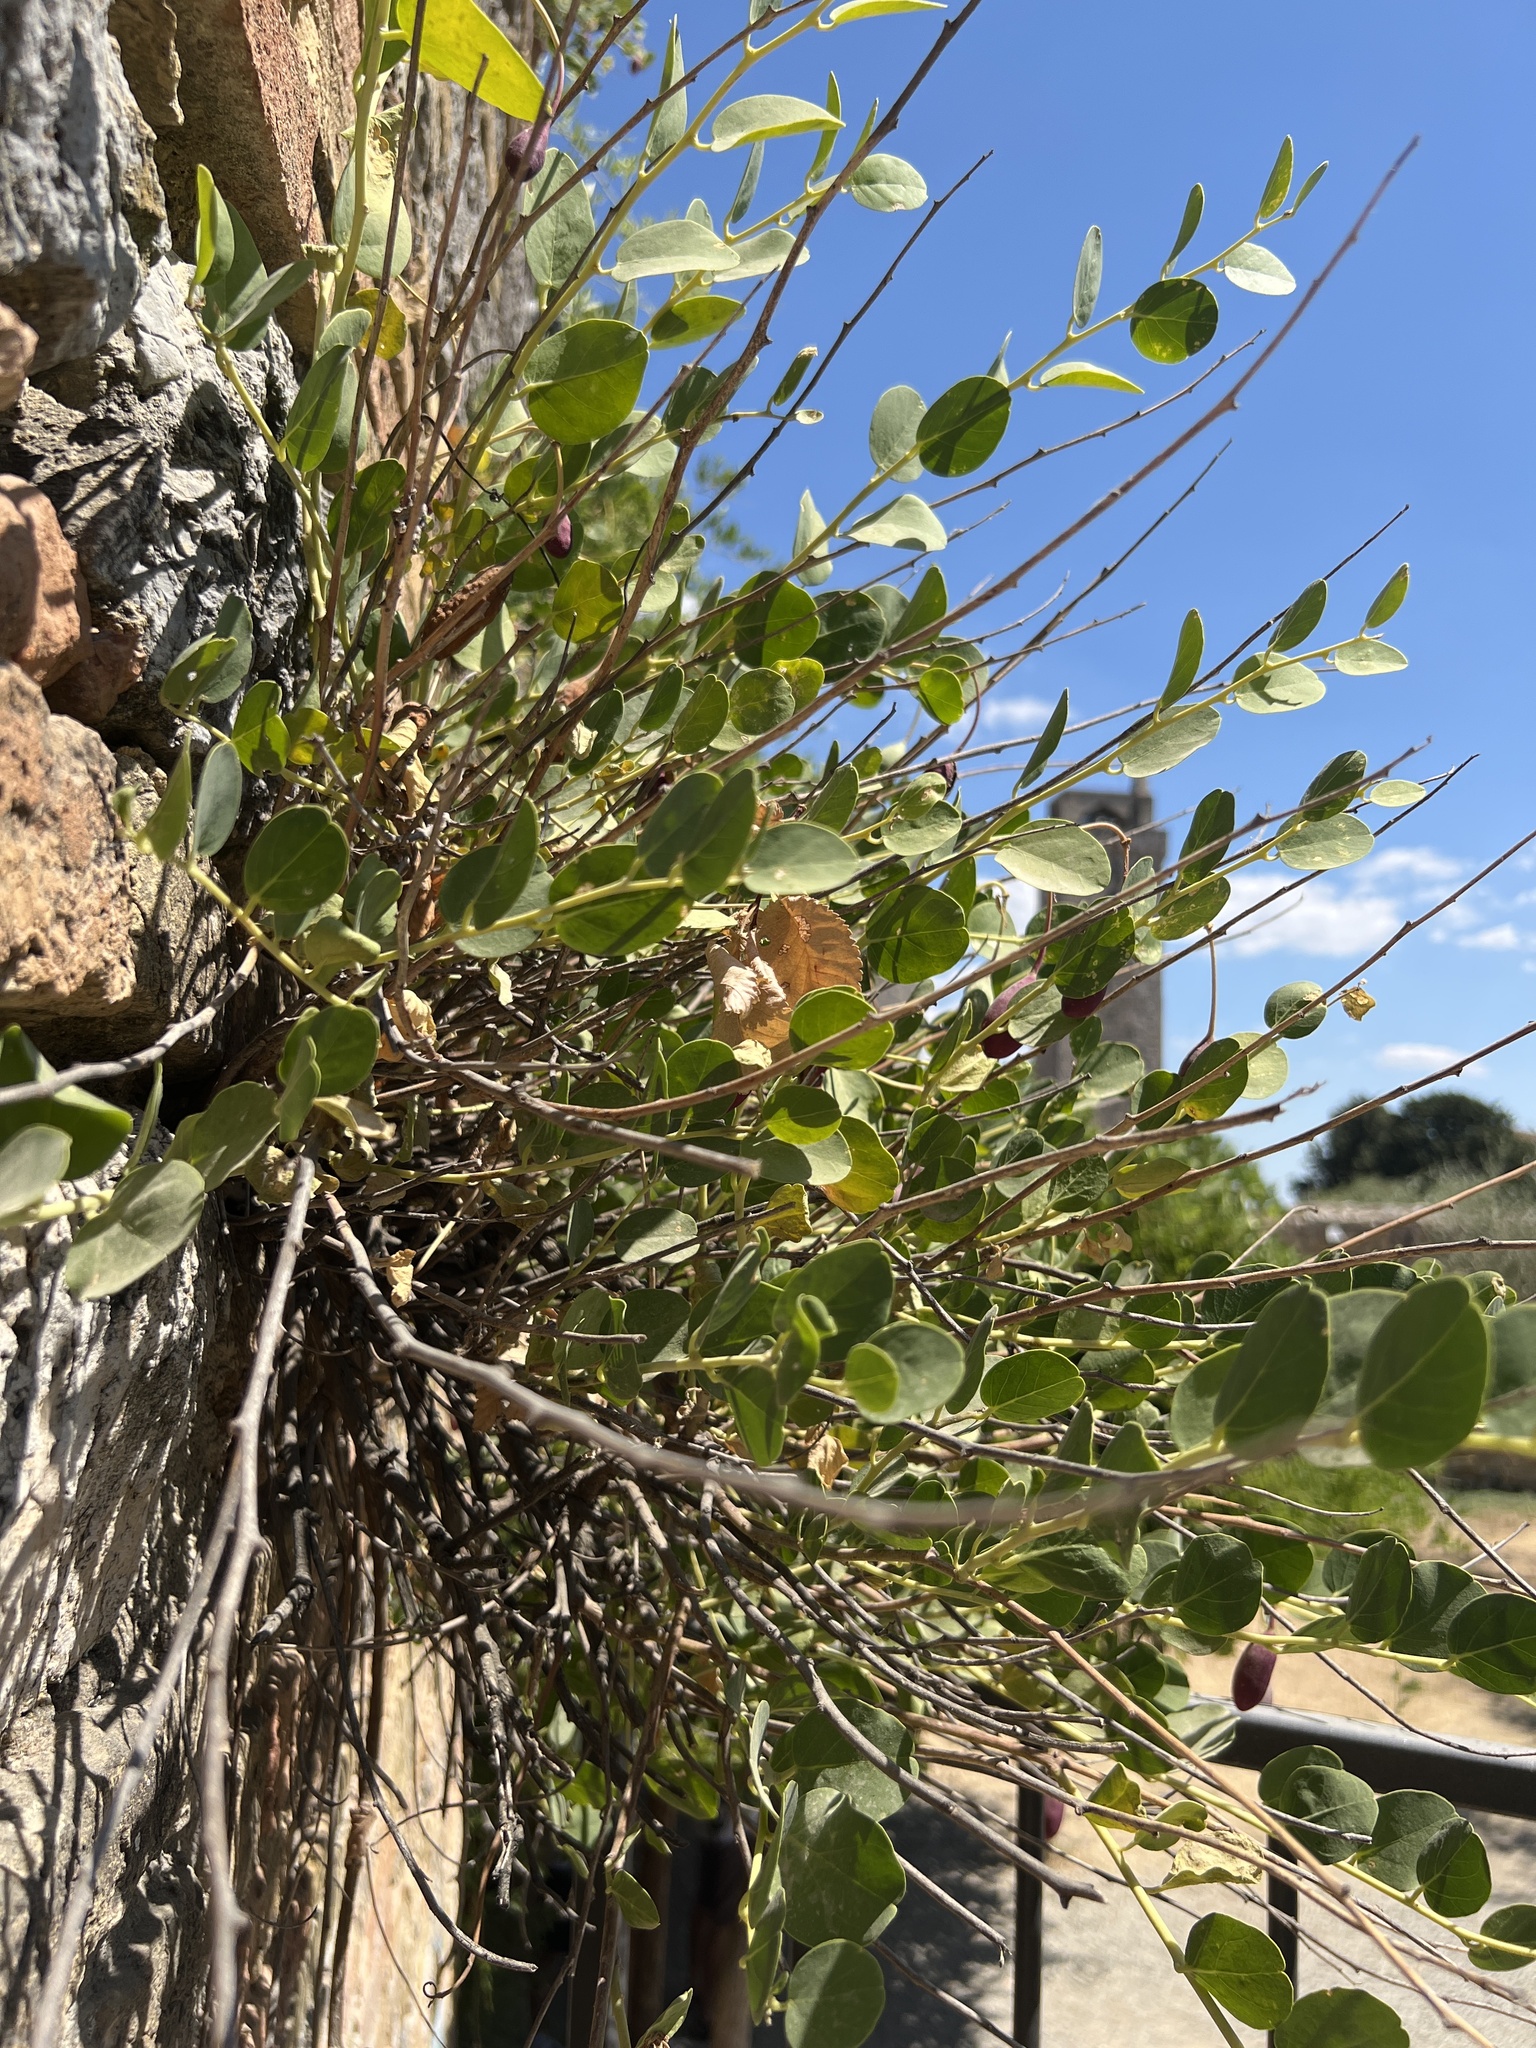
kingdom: Plantae
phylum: Tracheophyta
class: Magnoliopsida
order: Brassicales
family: Capparaceae
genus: Capparis
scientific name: Capparis orientalis
